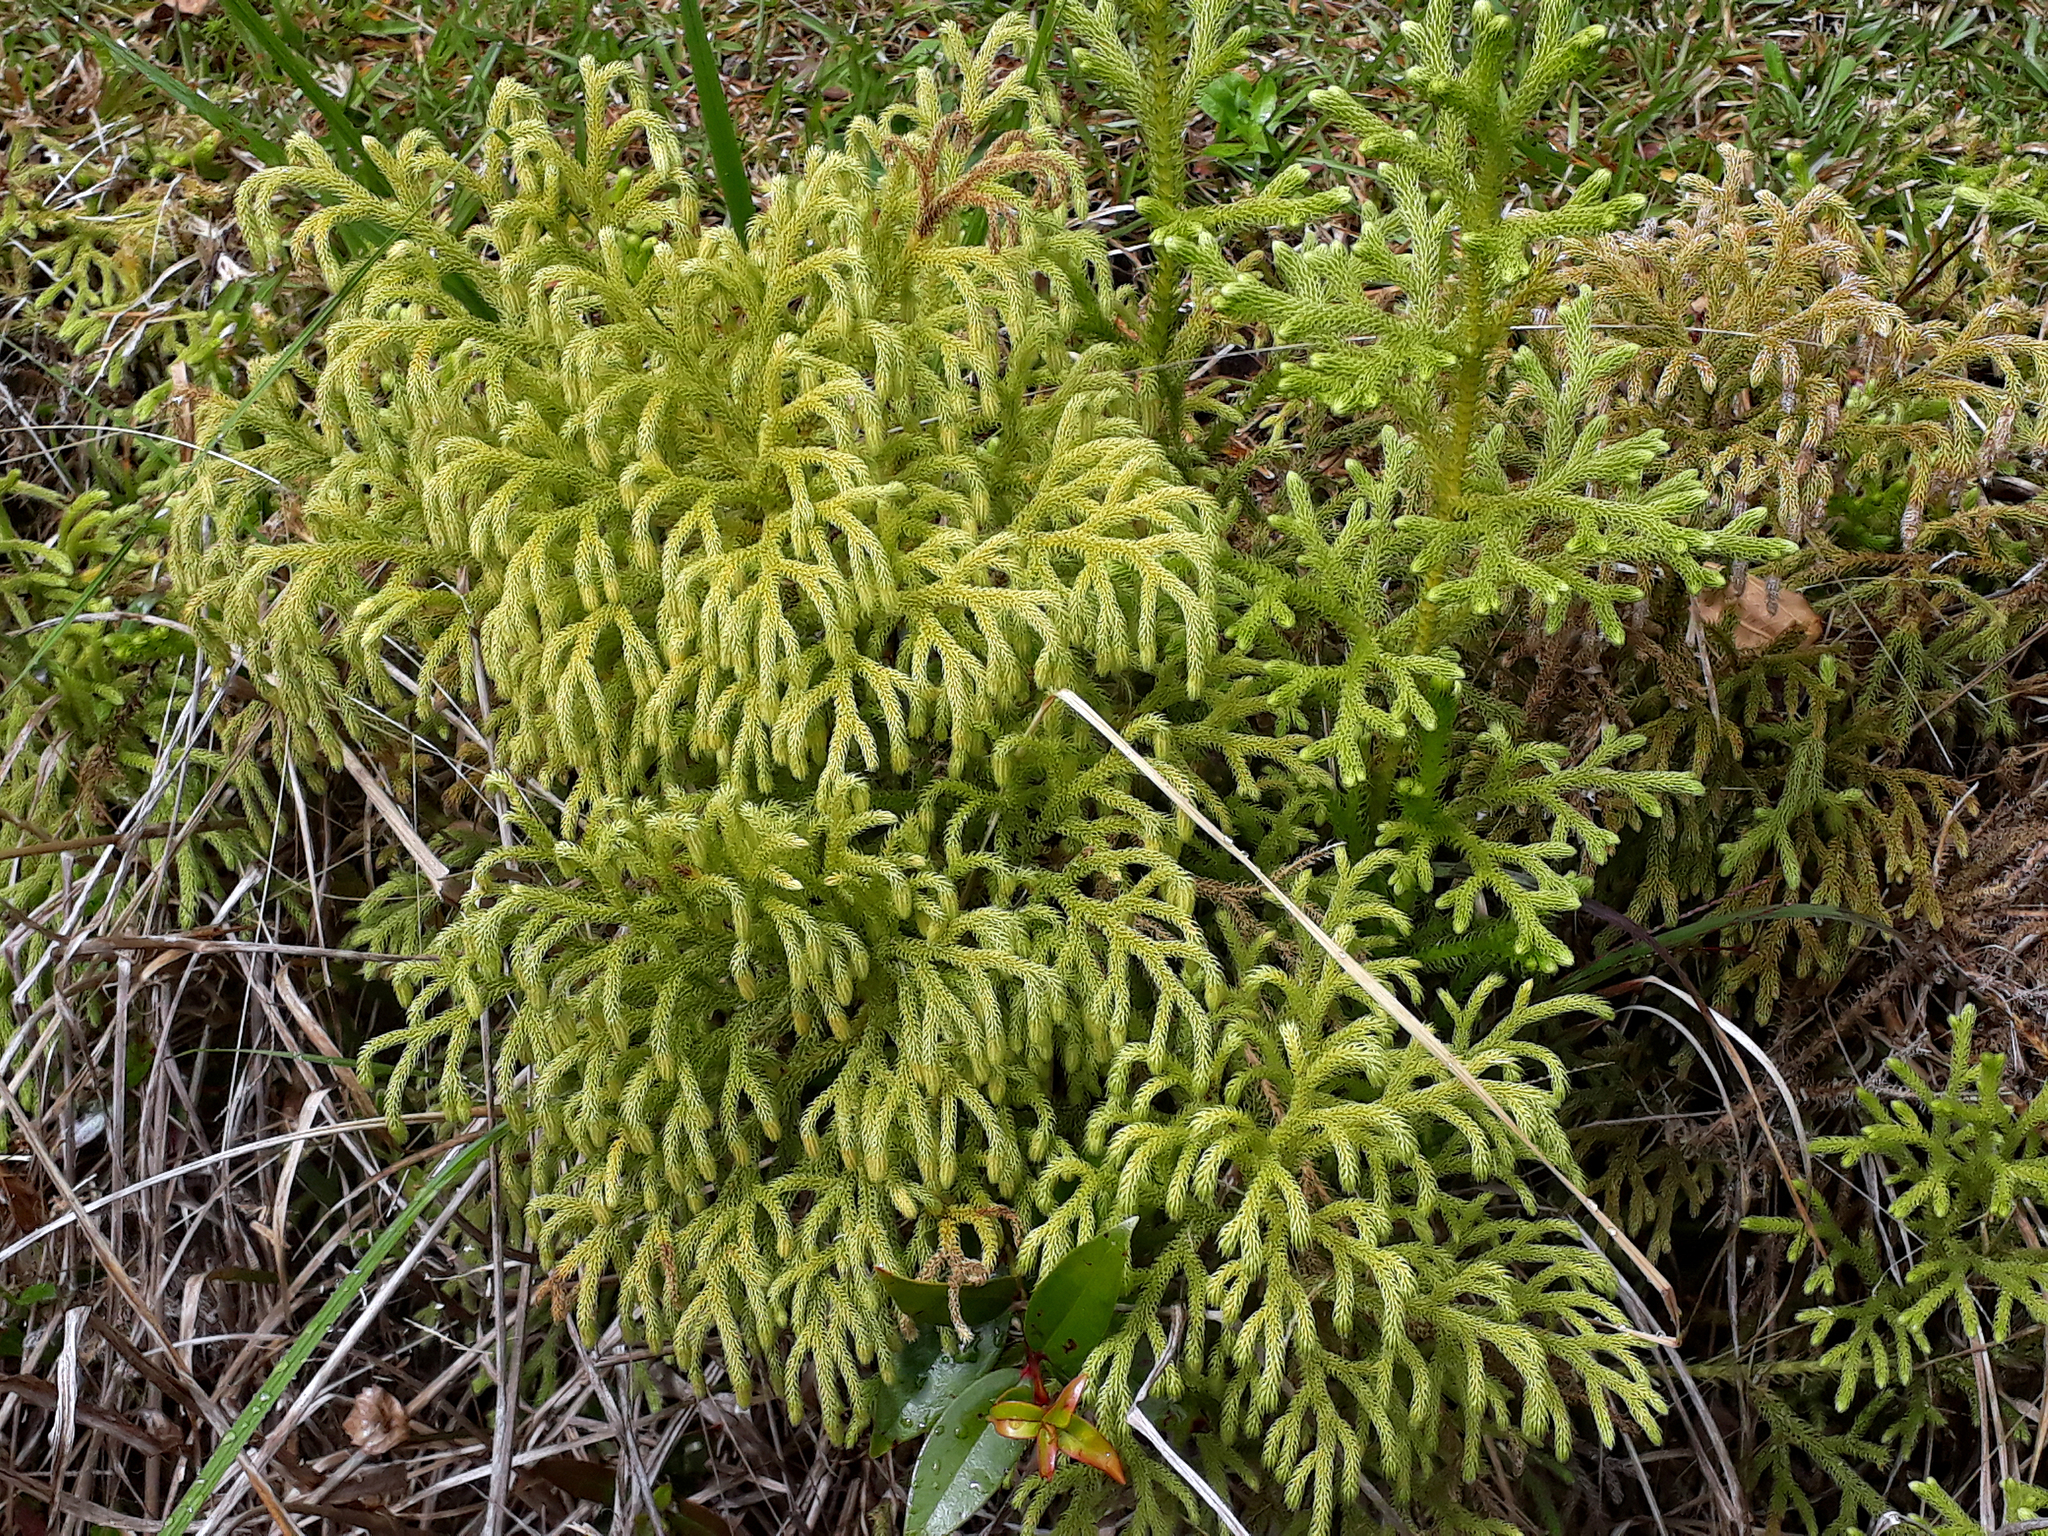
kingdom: Plantae
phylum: Tracheophyta
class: Lycopodiopsida
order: Lycopodiales
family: Lycopodiaceae
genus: Palhinhaea
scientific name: Palhinhaea cernua
